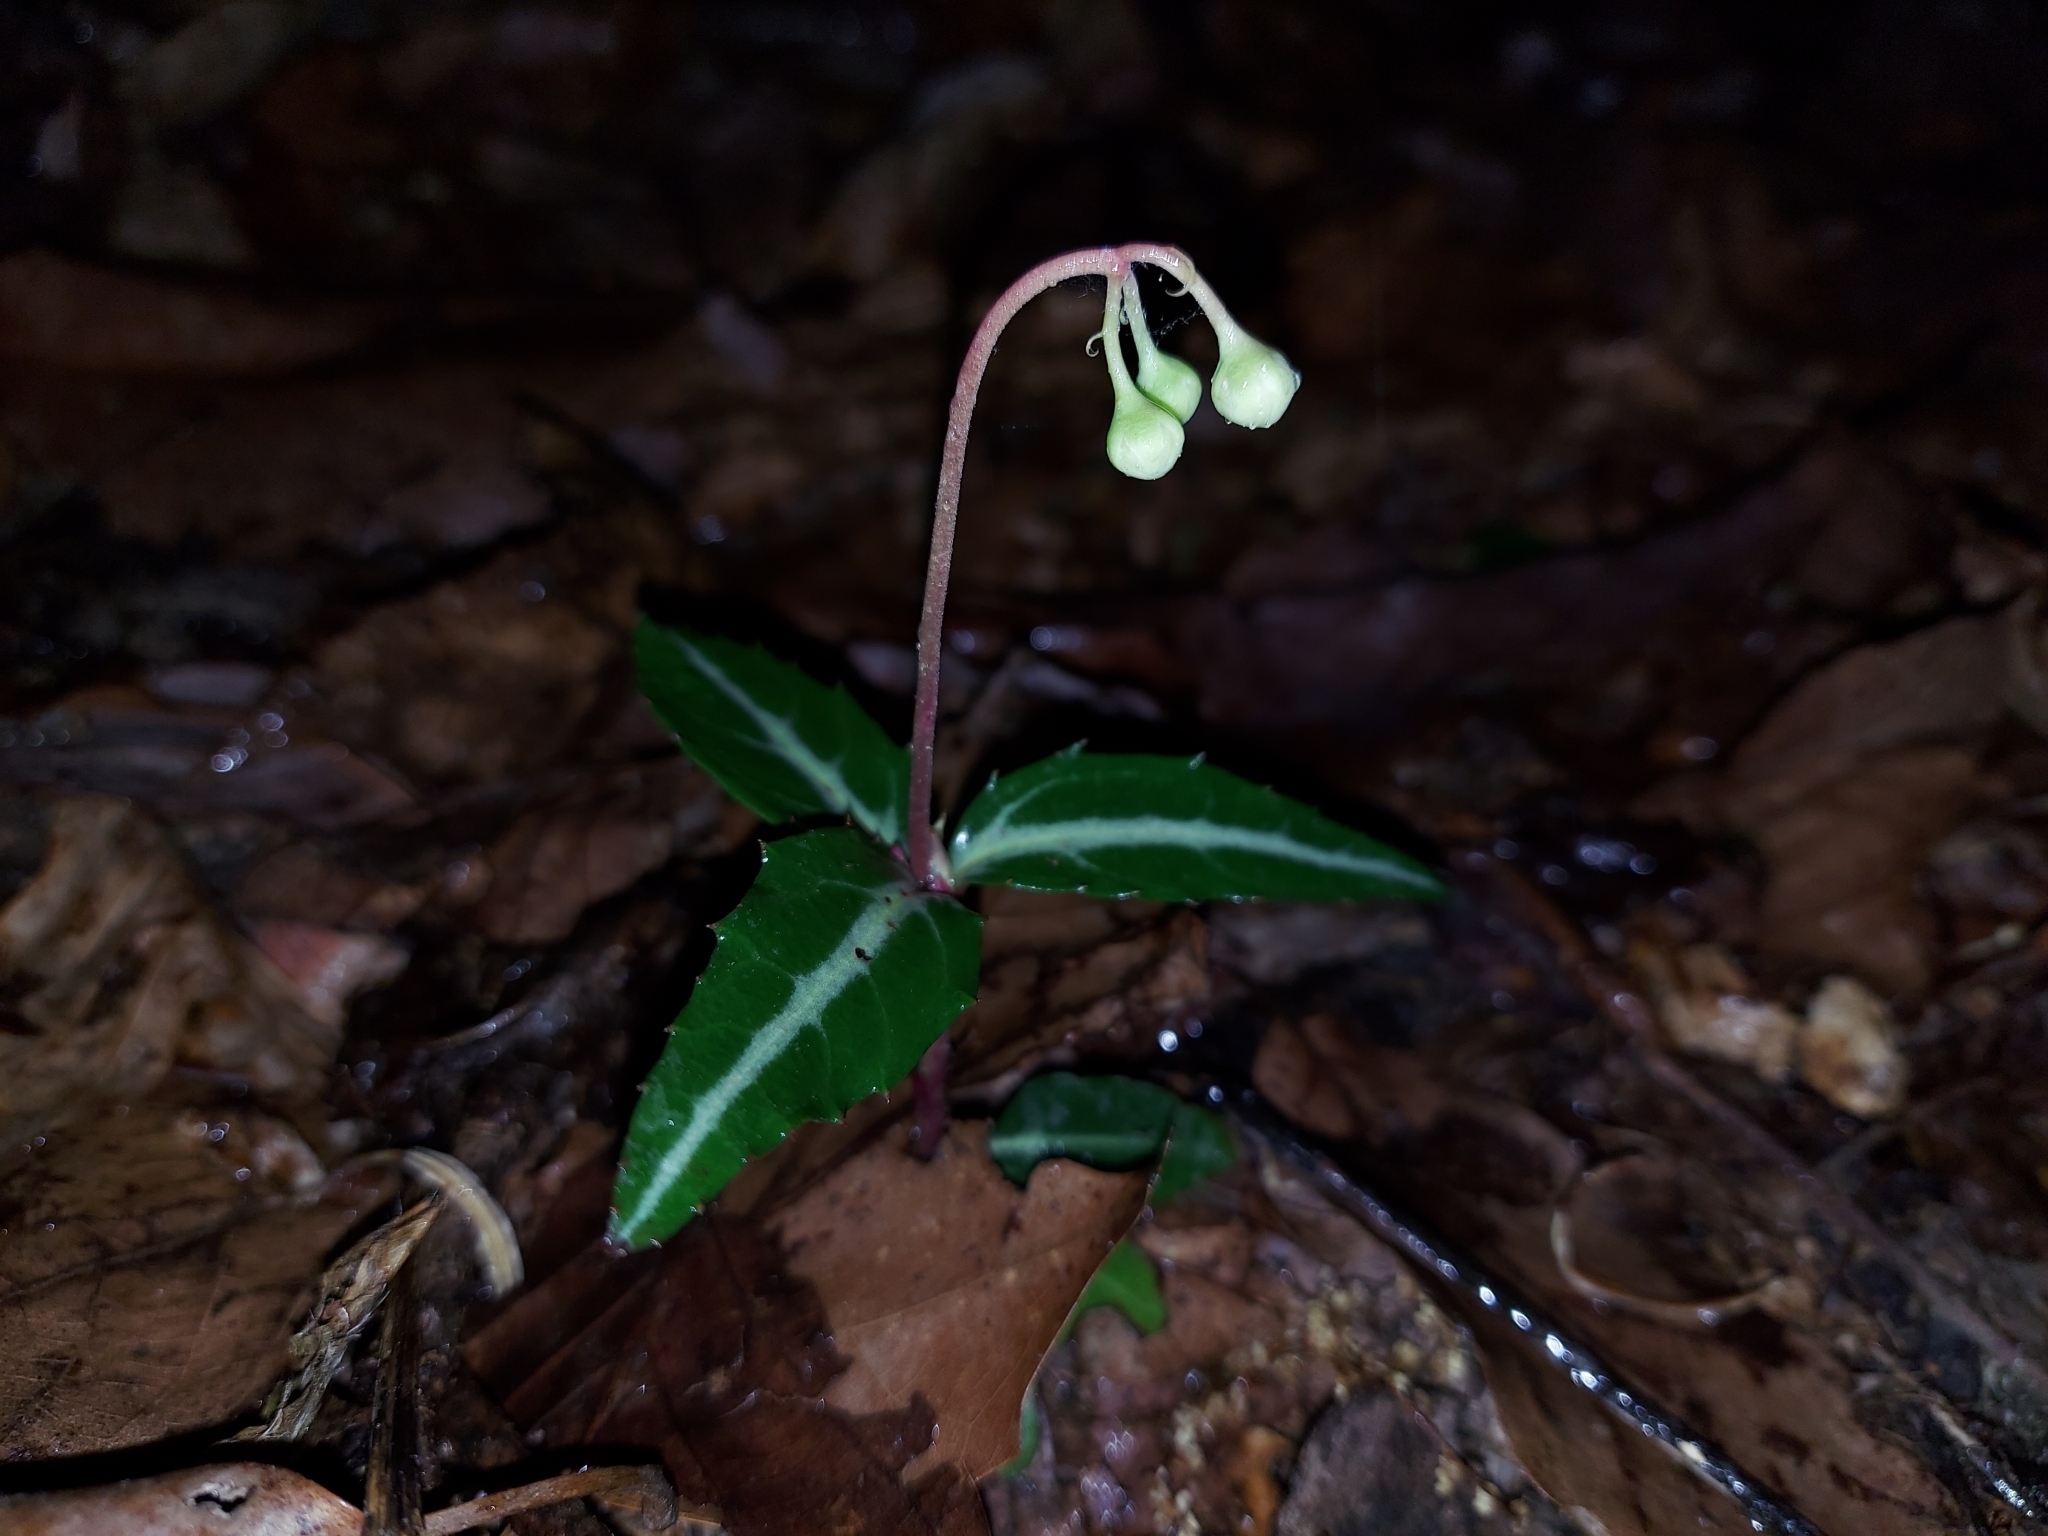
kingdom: Plantae
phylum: Tracheophyta
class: Magnoliopsida
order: Ericales
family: Ericaceae
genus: Chimaphila
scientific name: Chimaphila maculata
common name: Spotted pipsissewa
